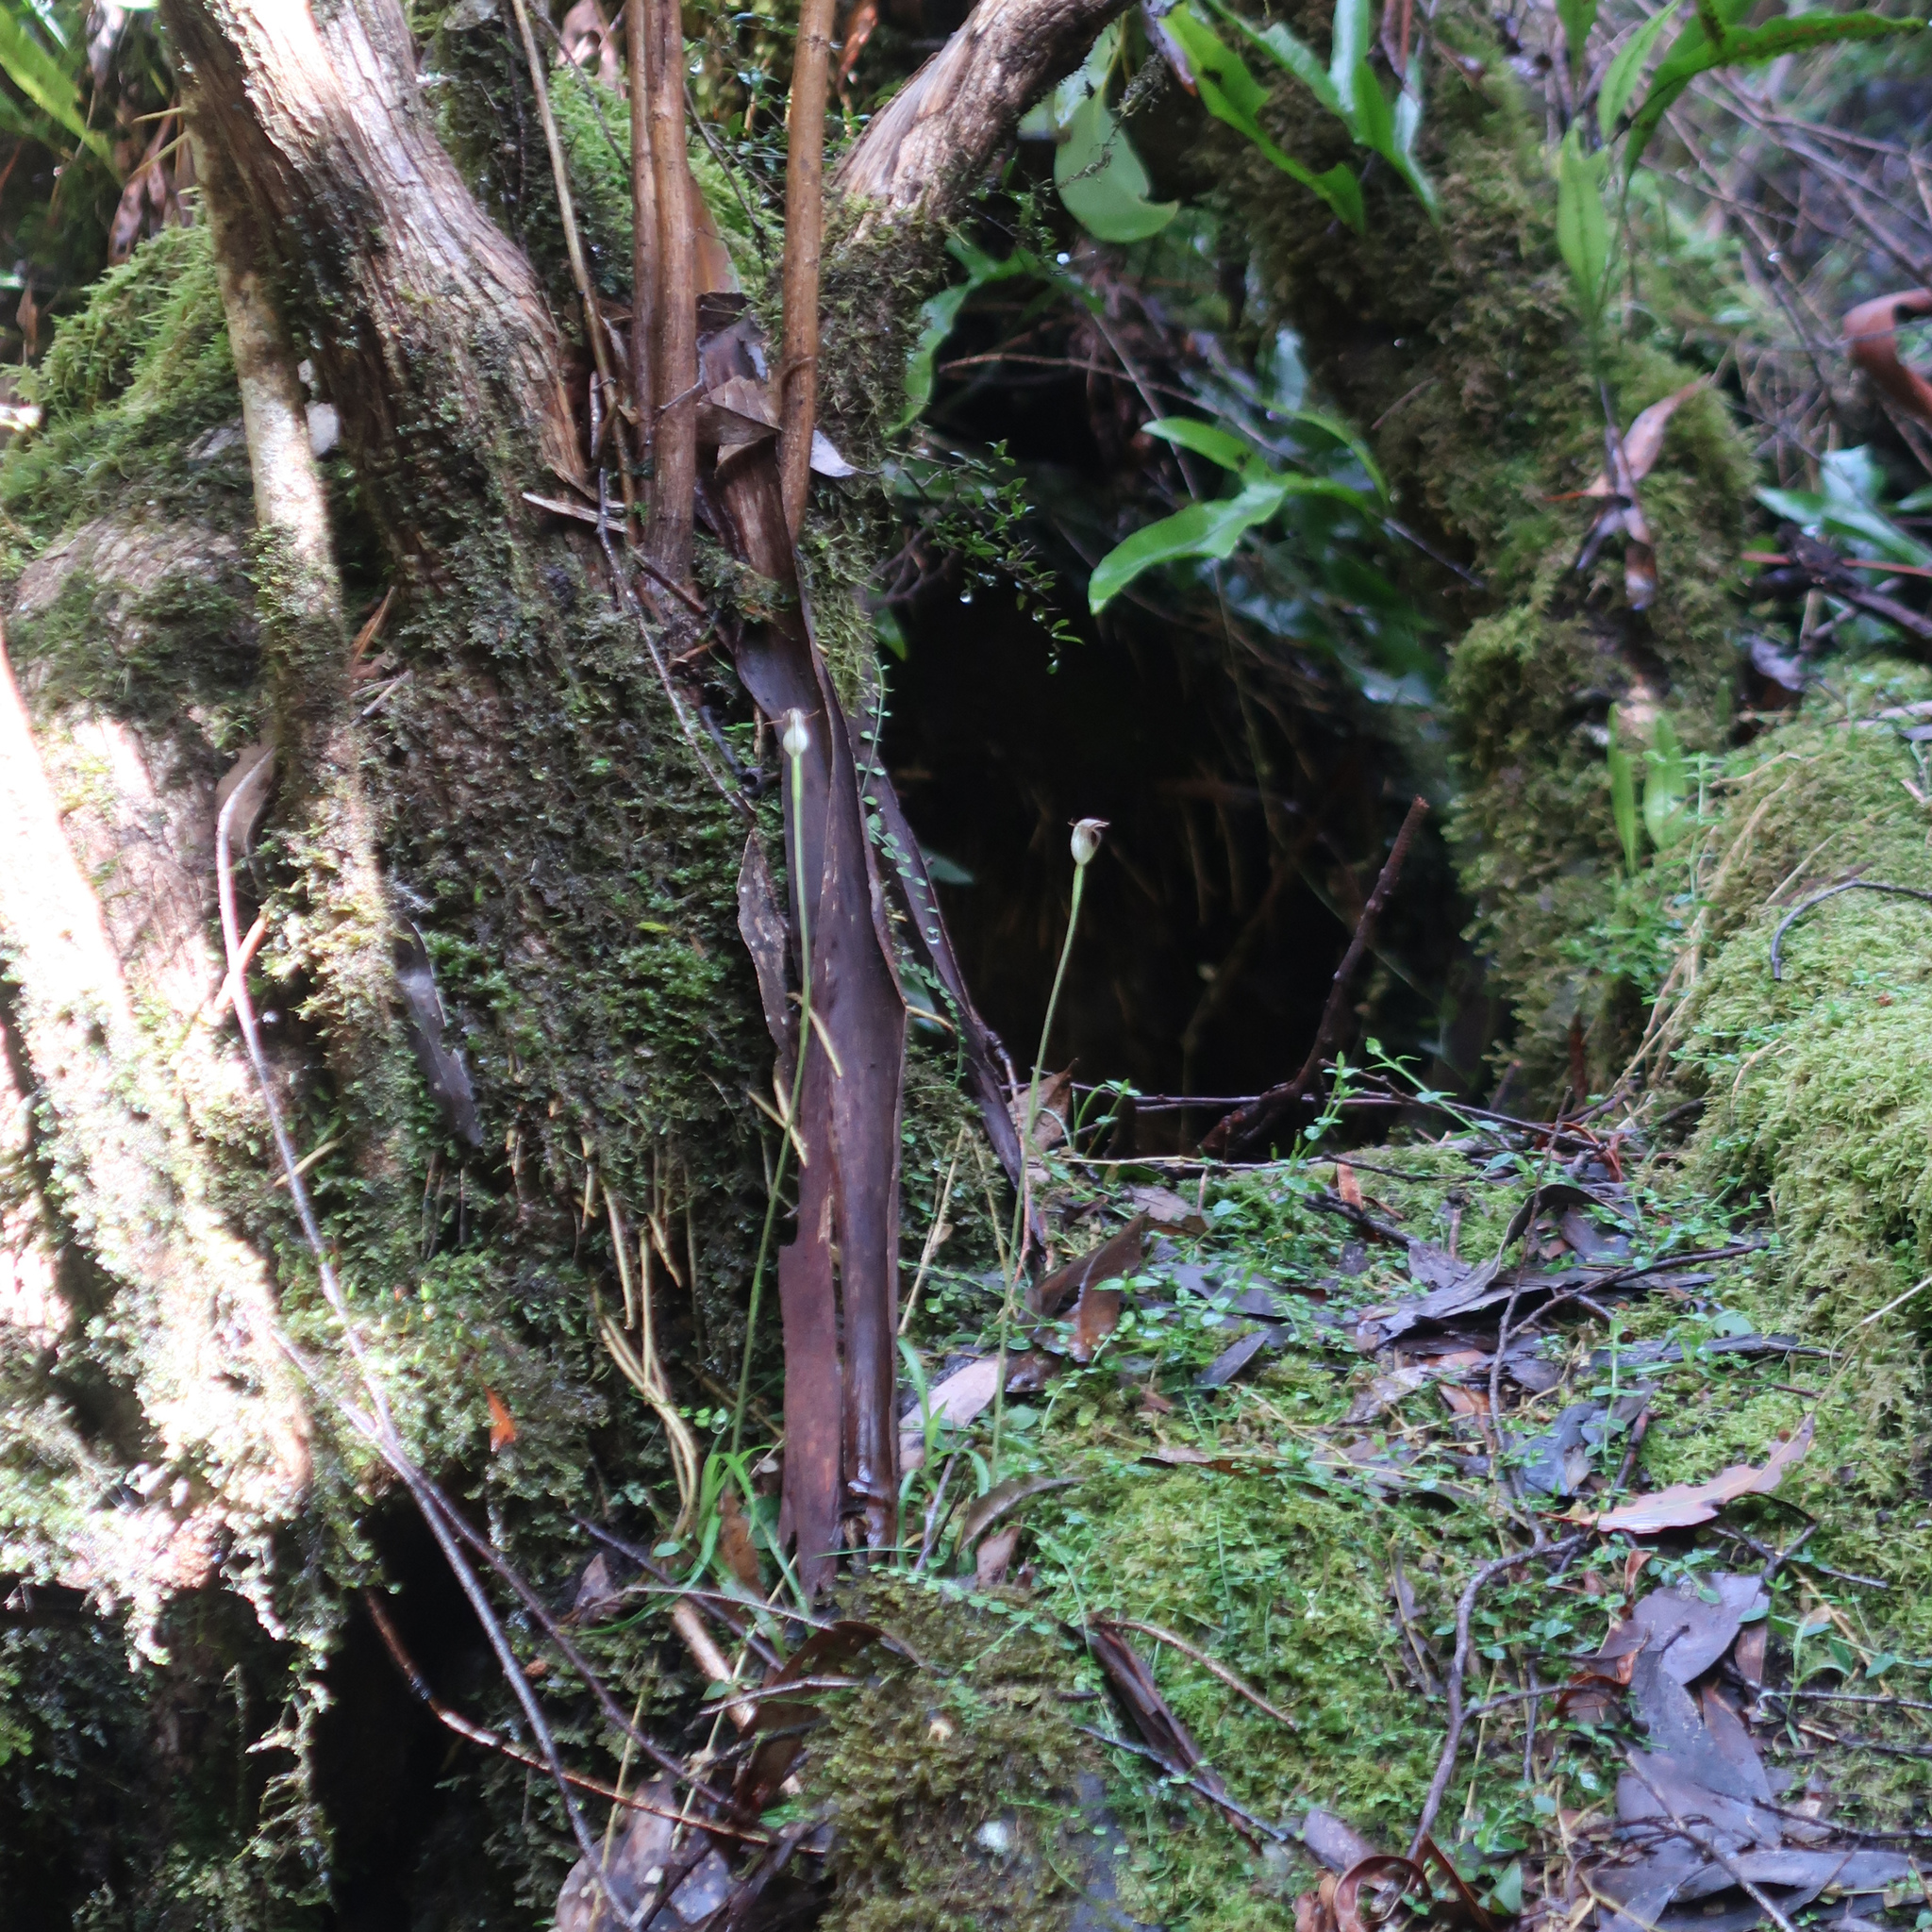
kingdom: Plantae
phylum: Tracheophyta
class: Liliopsida
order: Asparagales
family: Orchidaceae
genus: Pterostylis
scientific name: Pterostylis pedunculata
